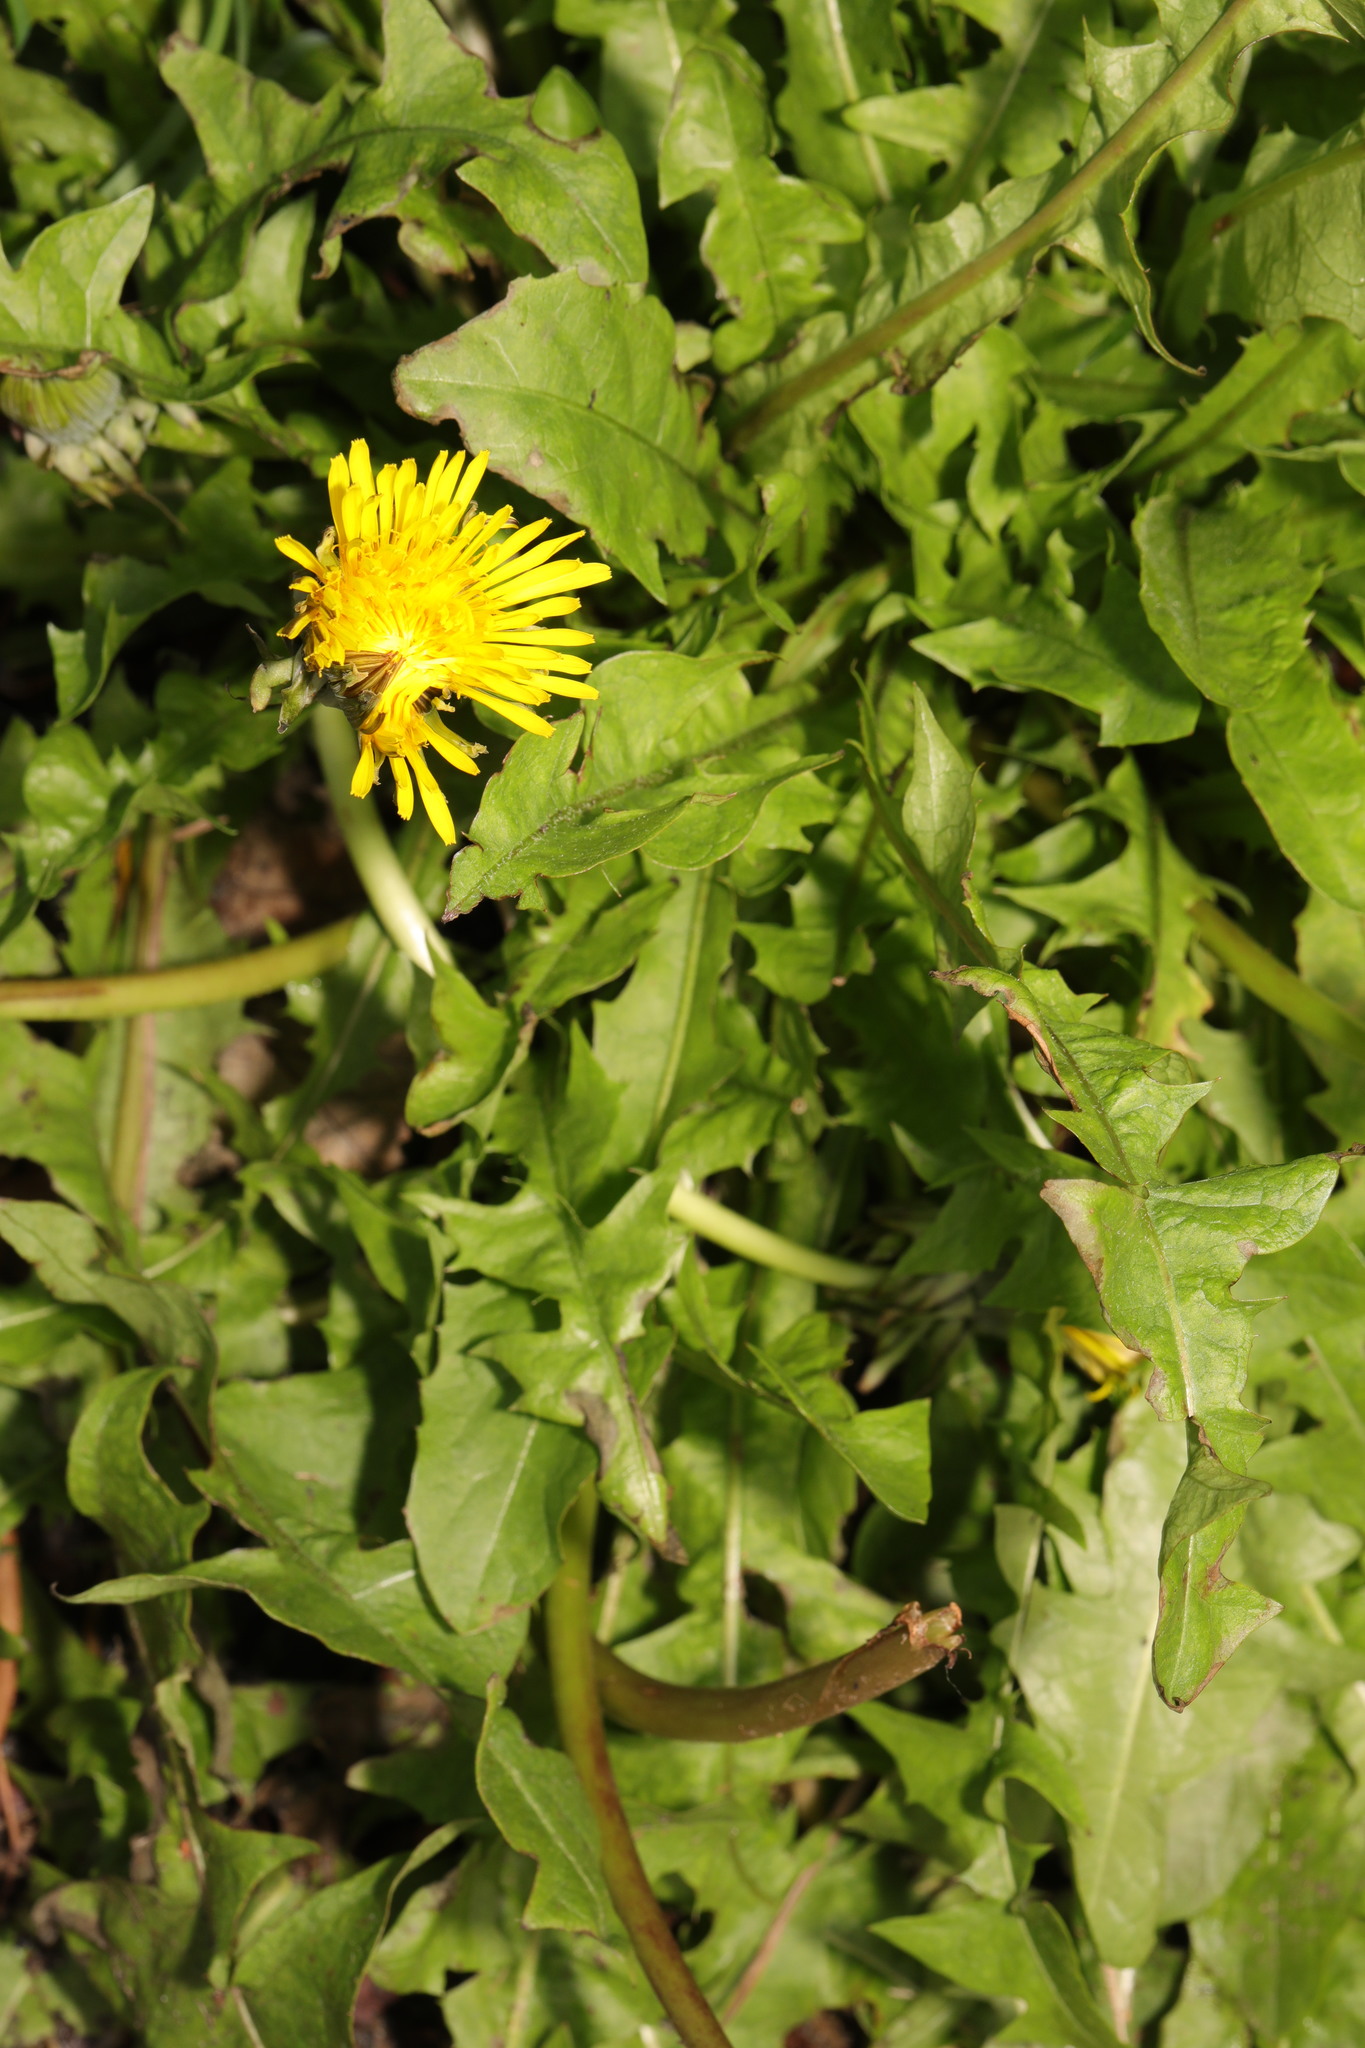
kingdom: Plantae
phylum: Tracheophyta
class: Magnoliopsida
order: Asterales
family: Asteraceae
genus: Taraxacum
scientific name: Taraxacum officinale
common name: Common dandelion
